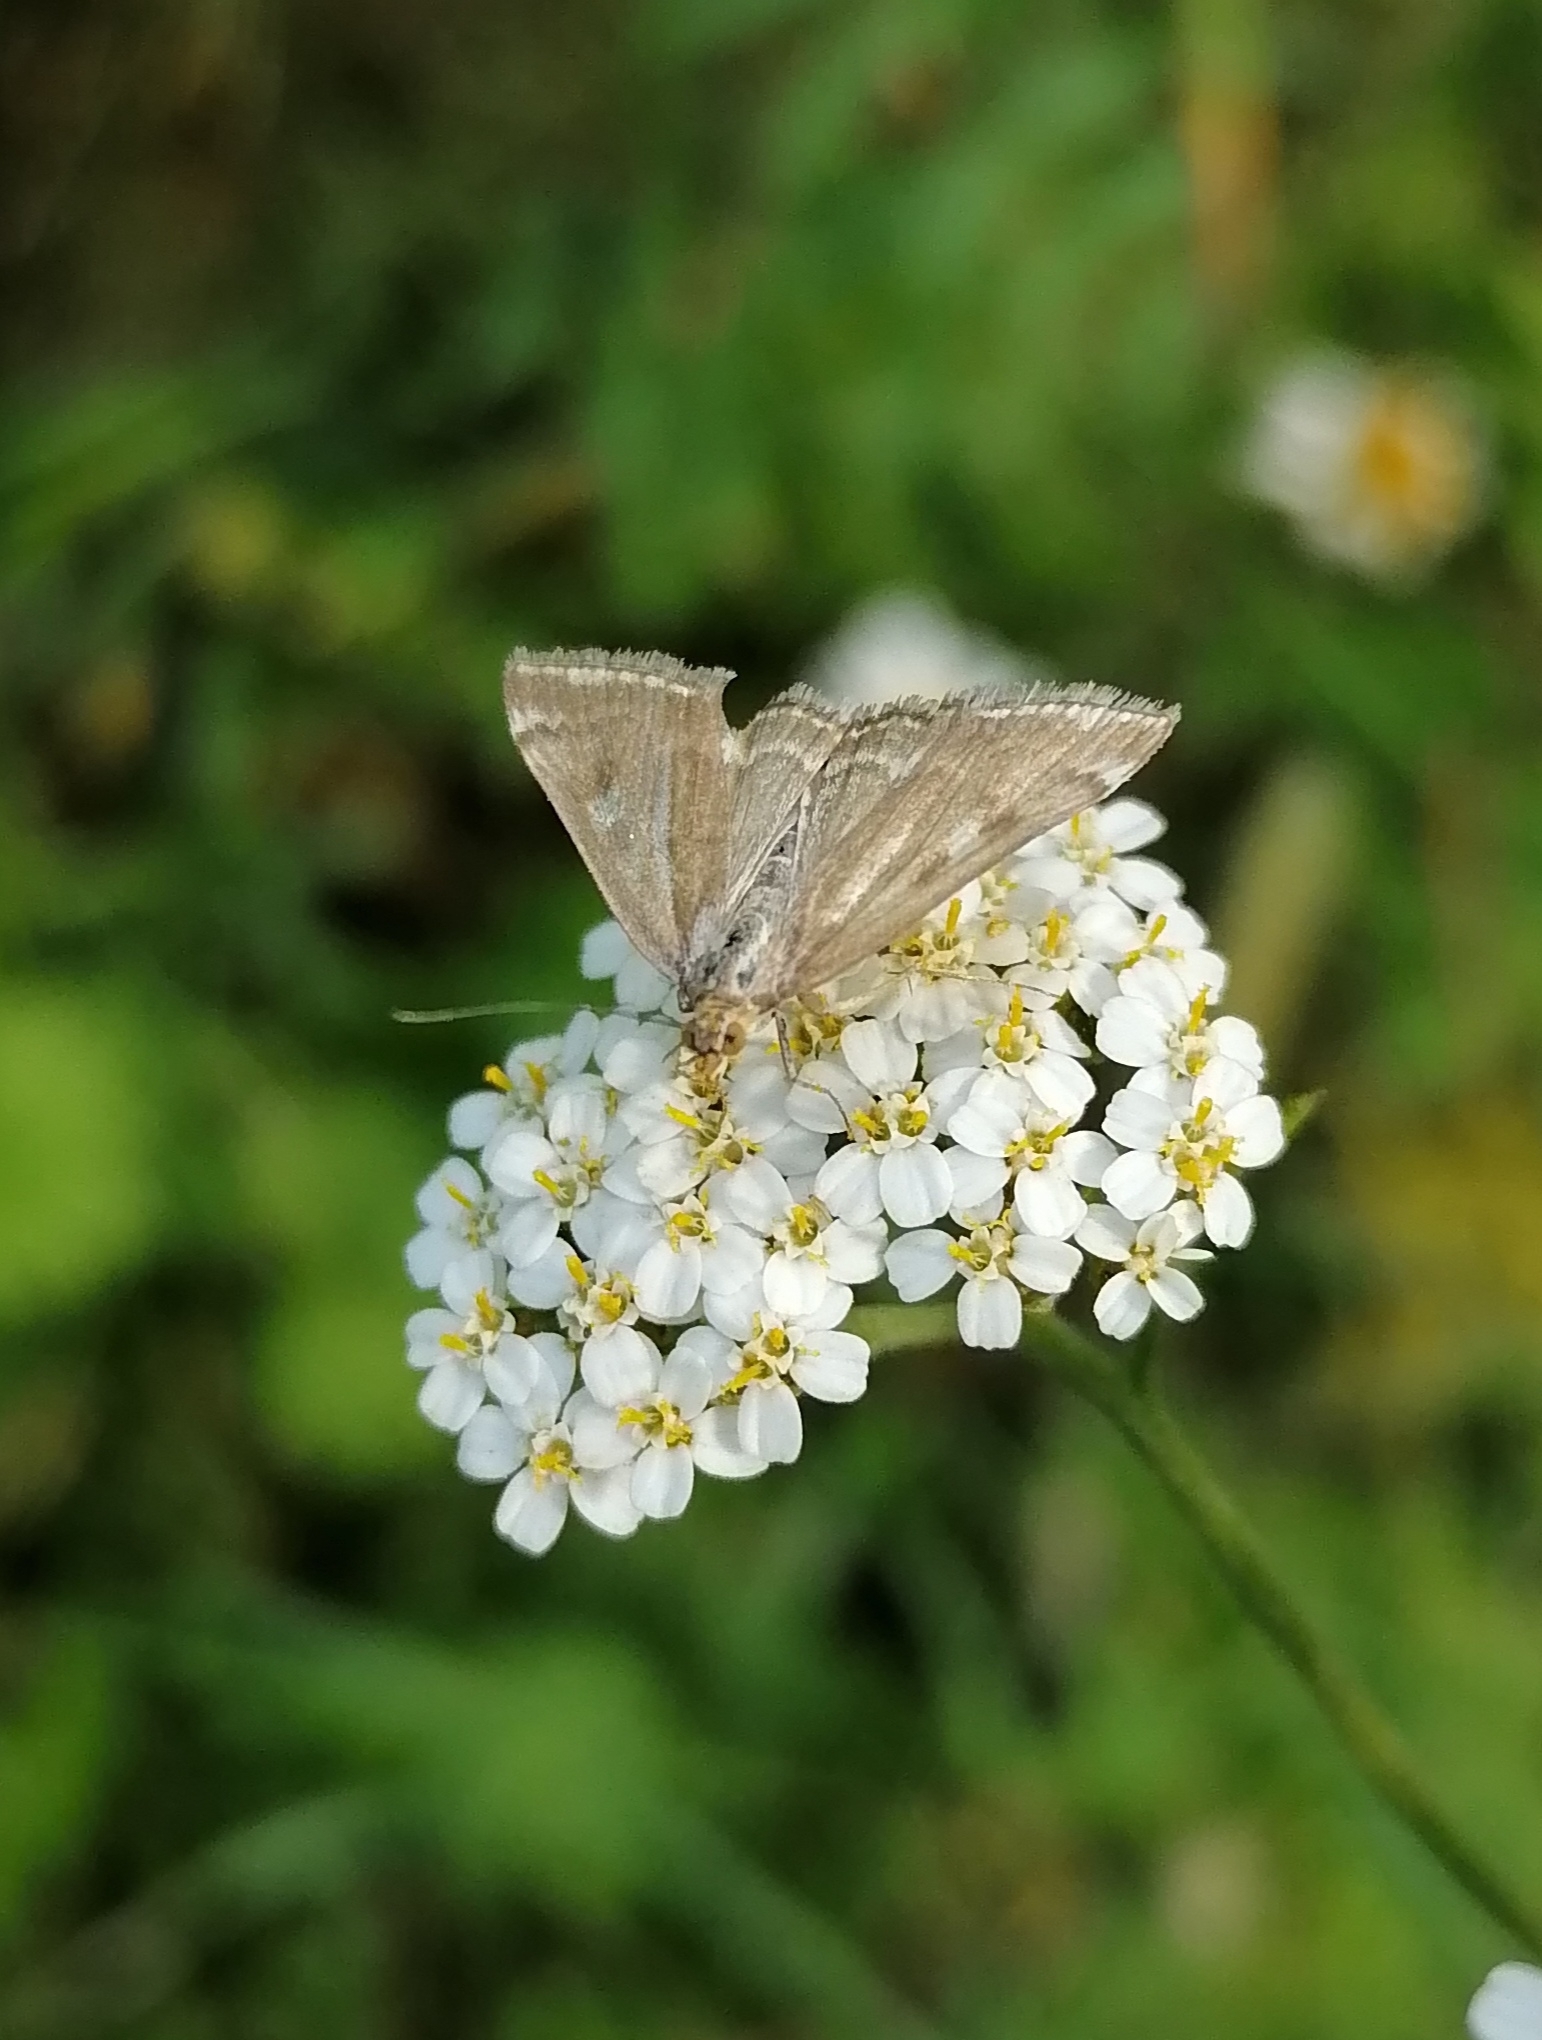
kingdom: Animalia
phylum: Arthropoda
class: Insecta
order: Lepidoptera
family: Crambidae
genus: Loxostege
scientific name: Loxostege sticticalis
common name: Crambid moth
